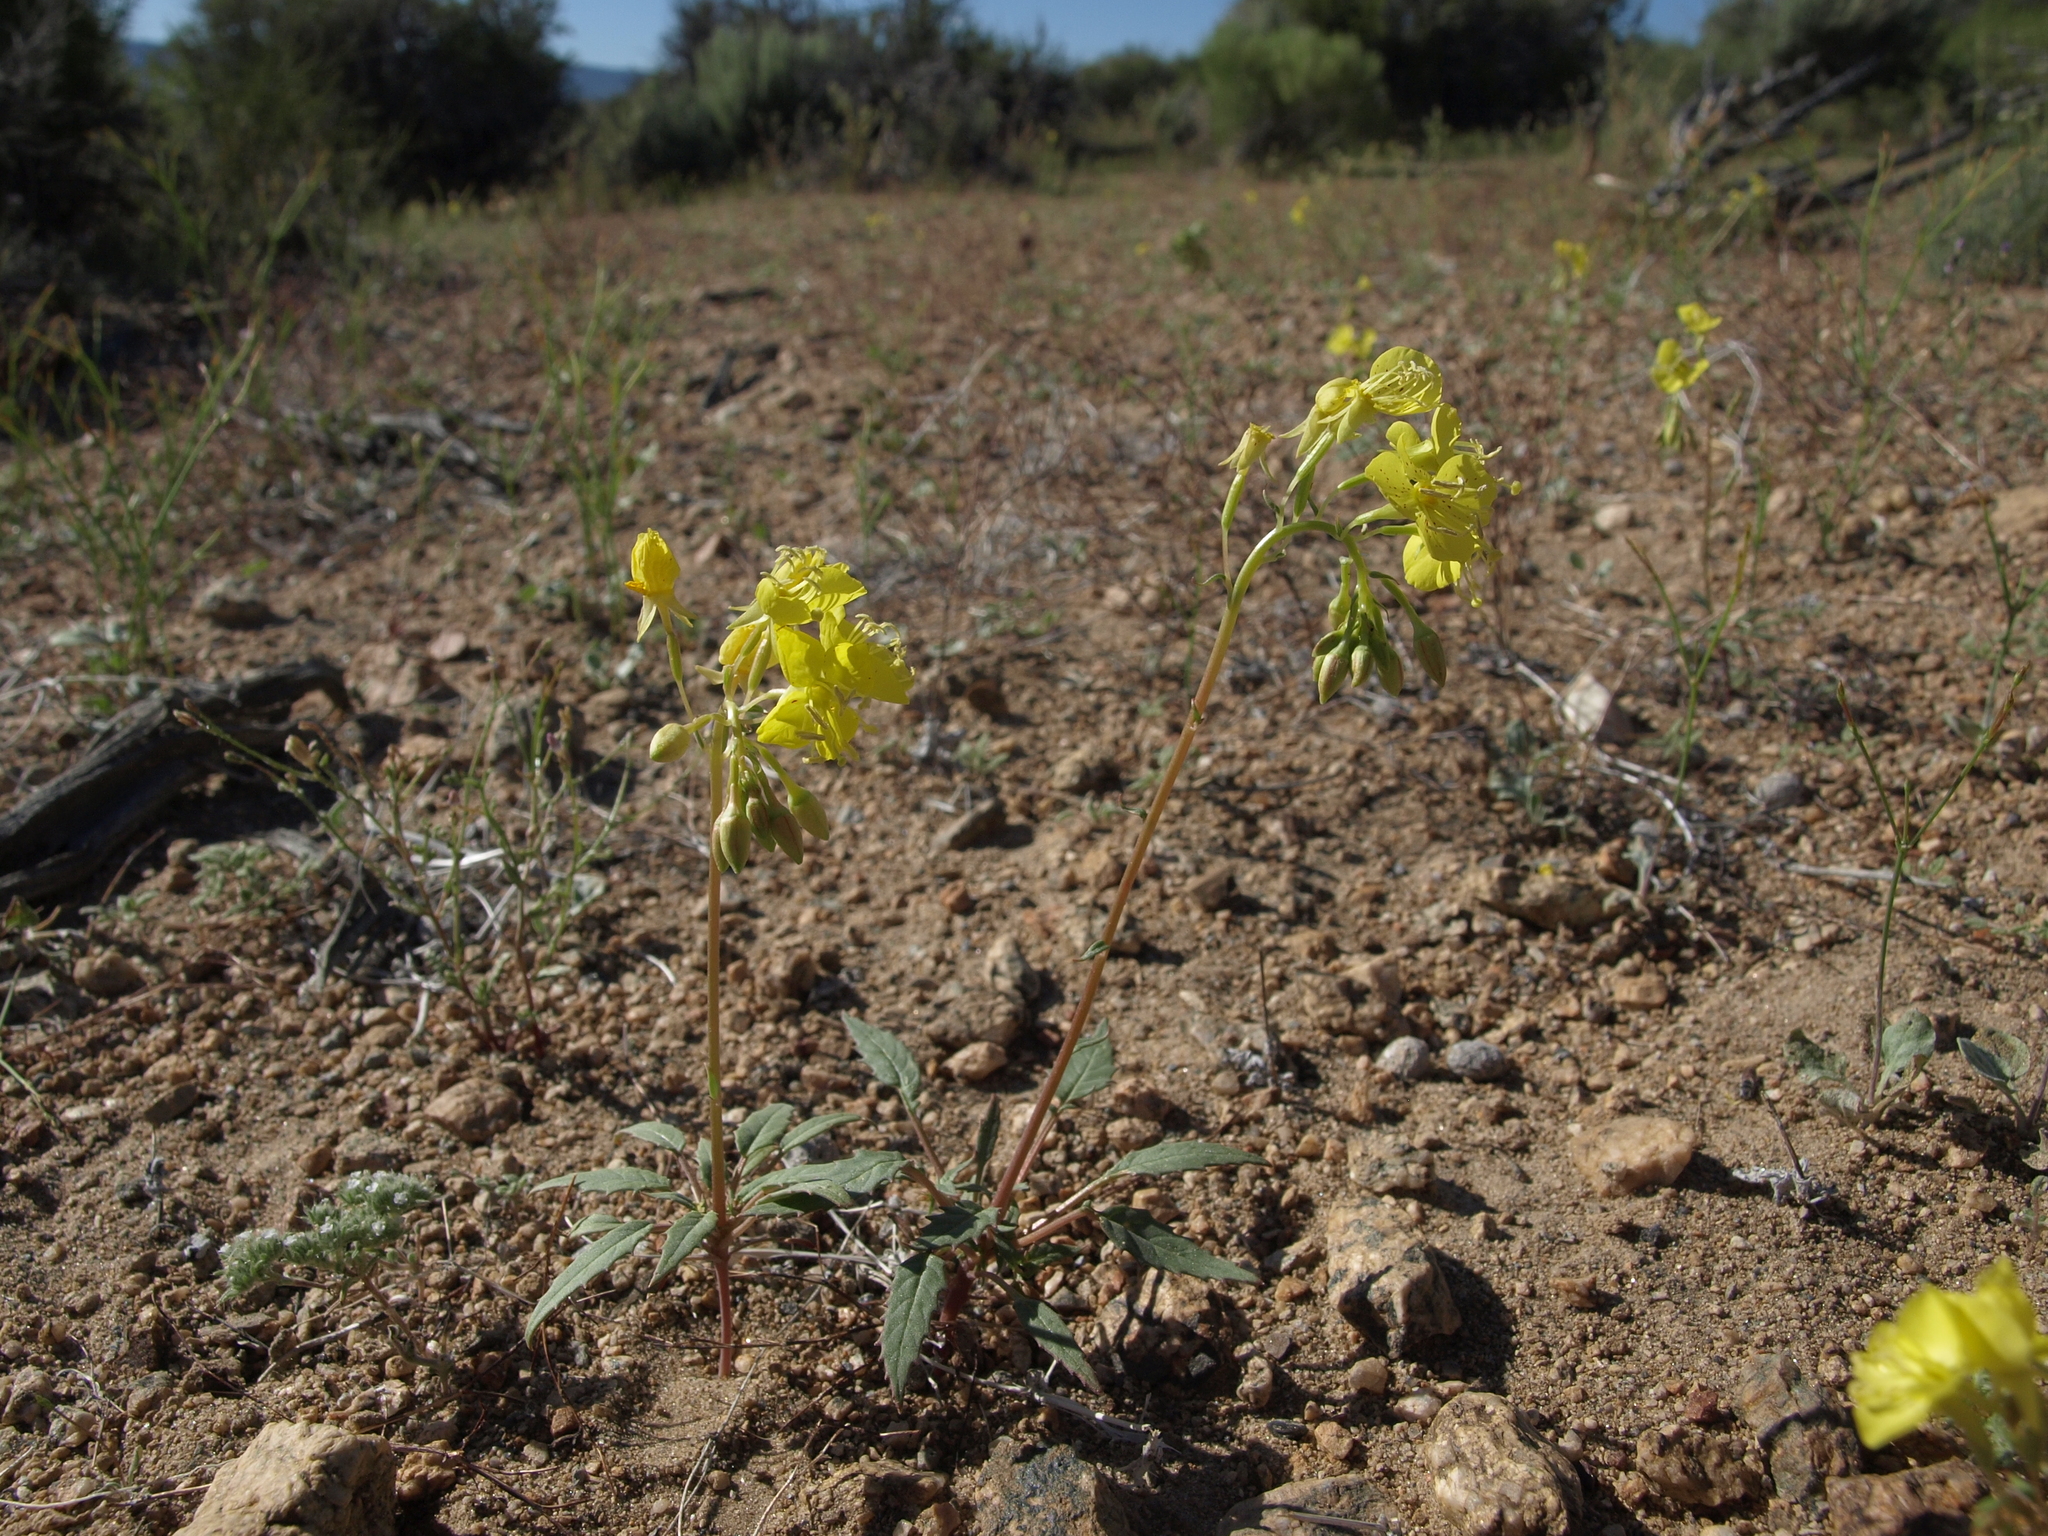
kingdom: Plantae
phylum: Tracheophyta
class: Magnoliopsida
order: Myrtales
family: Onagraceae
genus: Chylismia
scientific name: Chylismia claviformis
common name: Browneyes
